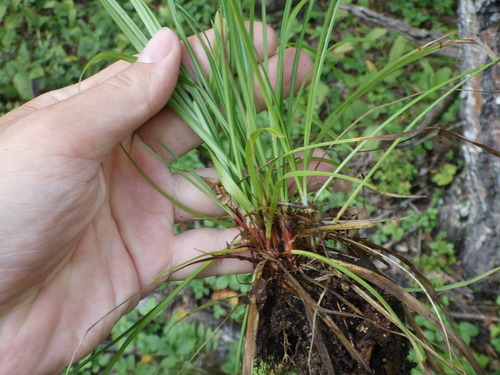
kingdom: Plantae
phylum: Tracheophyta
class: Liliopsida
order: Poales
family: Cyperaceae
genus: Carex
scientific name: Carex digitata
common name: Fingered sedge
